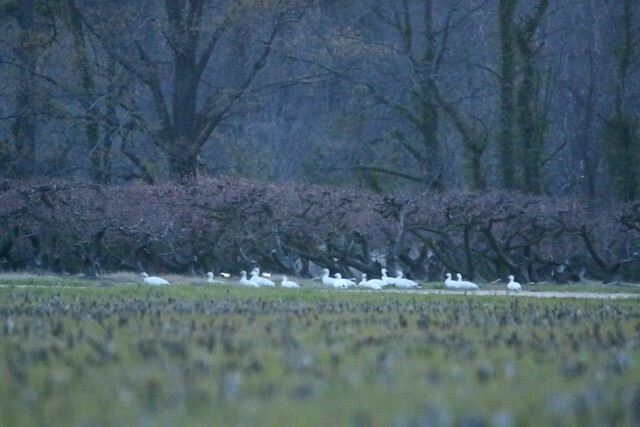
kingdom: Animalia
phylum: Chordata
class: Aves
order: Anseriformes
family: Anatidae
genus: Anser
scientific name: Anser rossii
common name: Ross's goose
